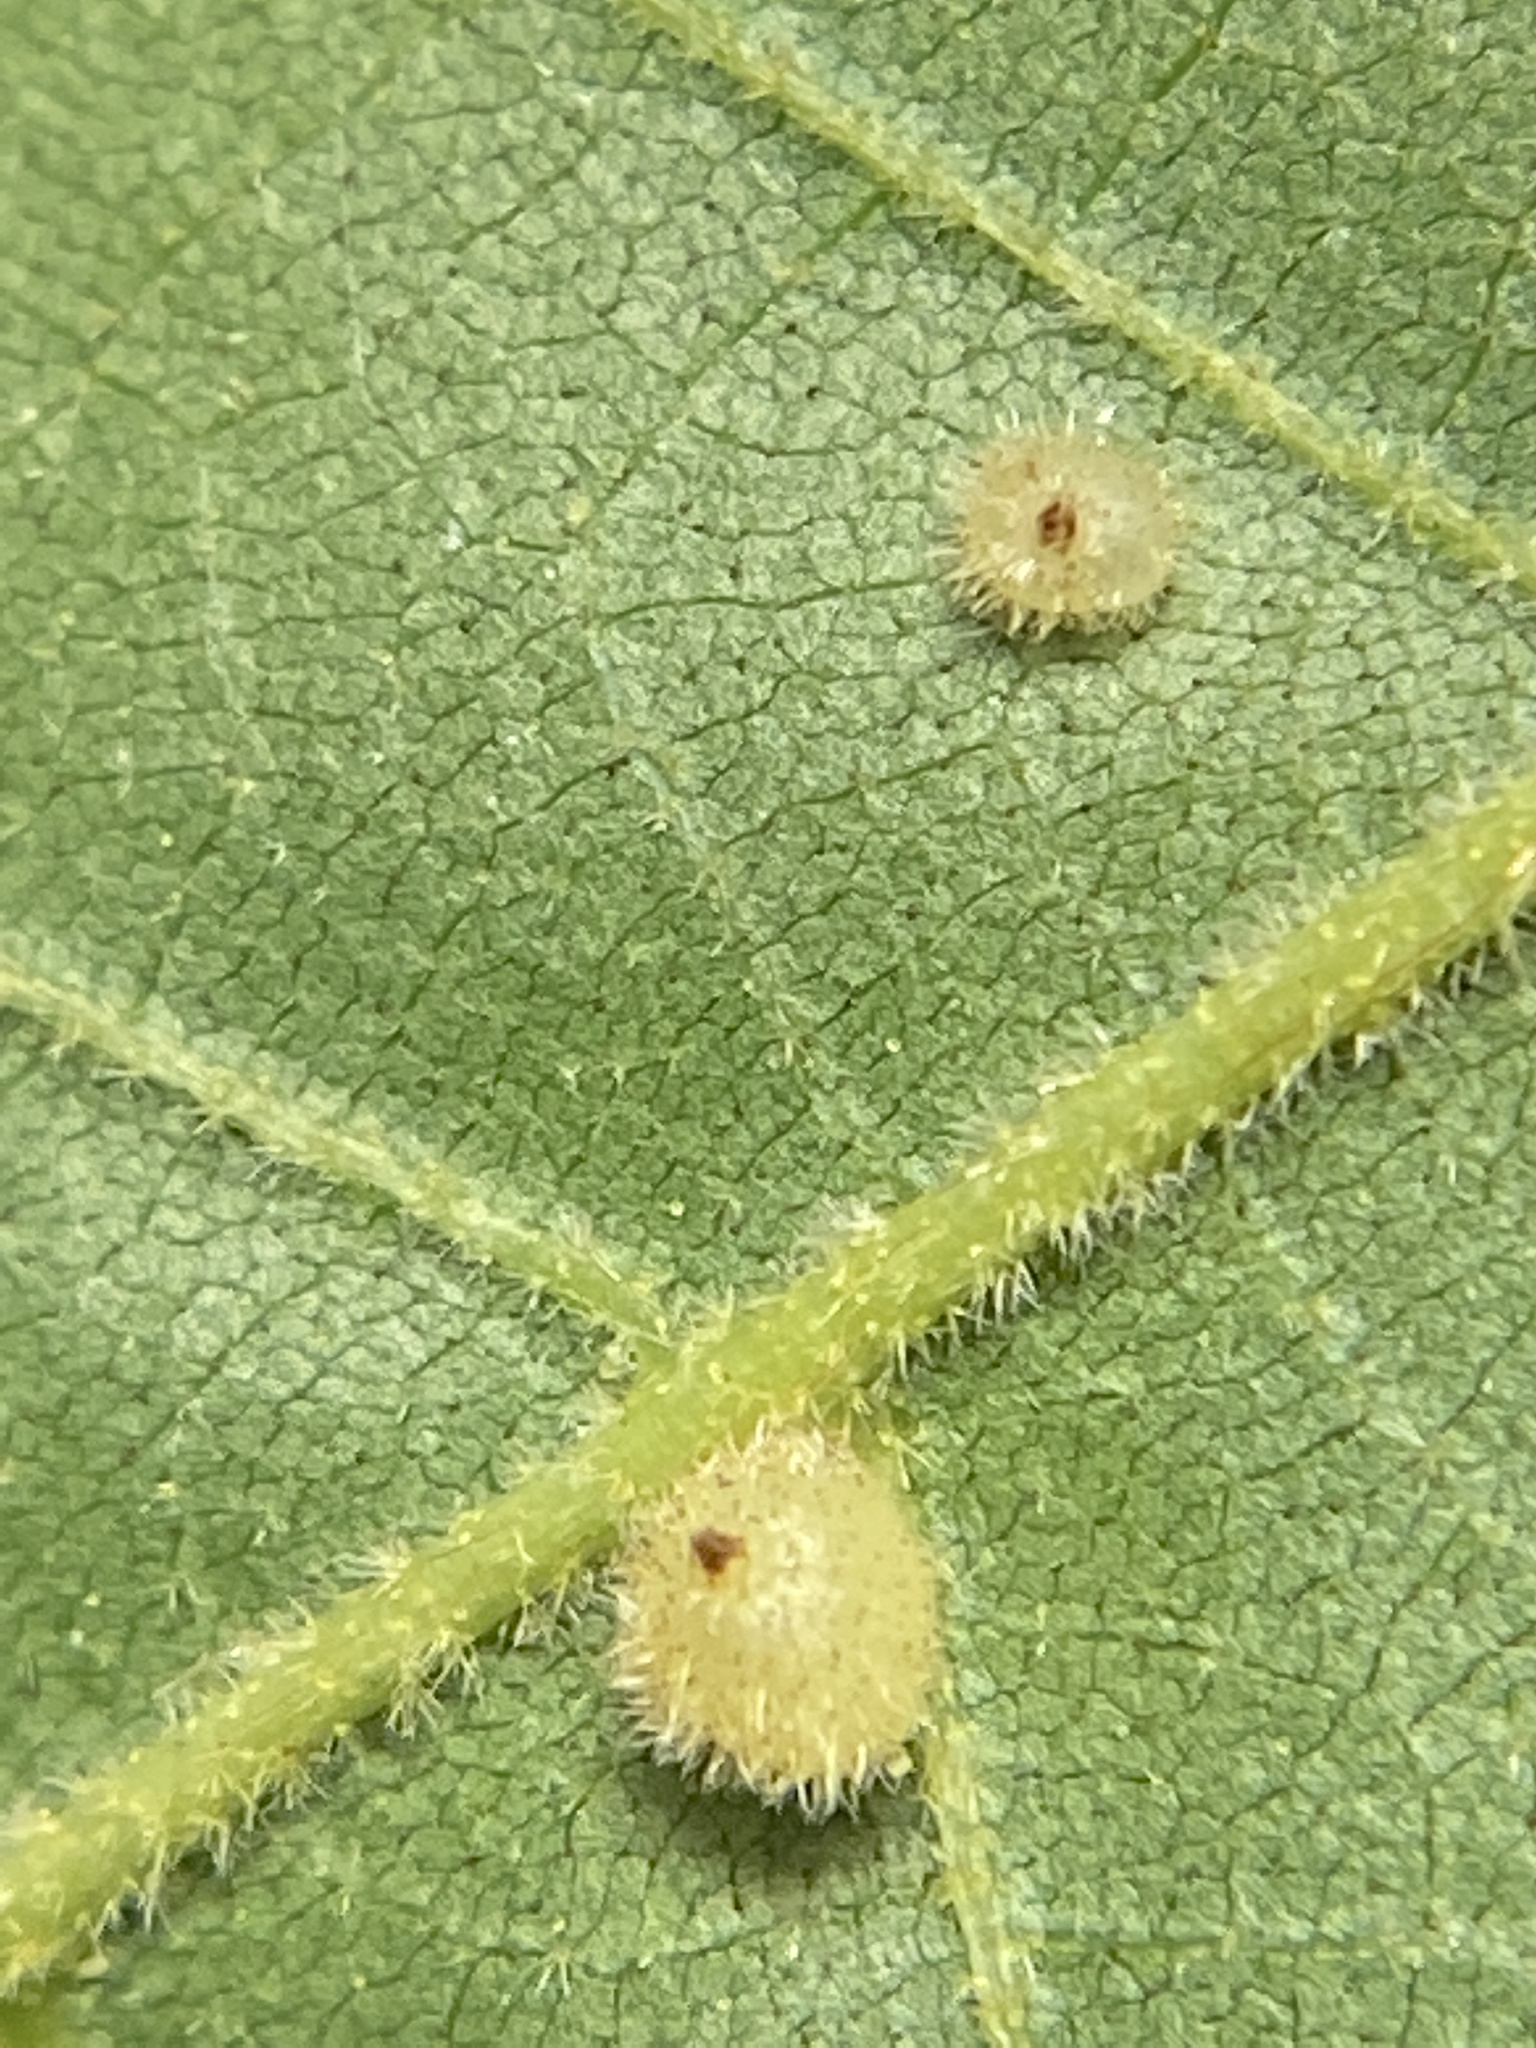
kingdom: Animalia
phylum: Arthropoda
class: Insecta
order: Diptera
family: Cecidomyiidae
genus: Caryomyia
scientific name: Caryomyia spiniglobus
